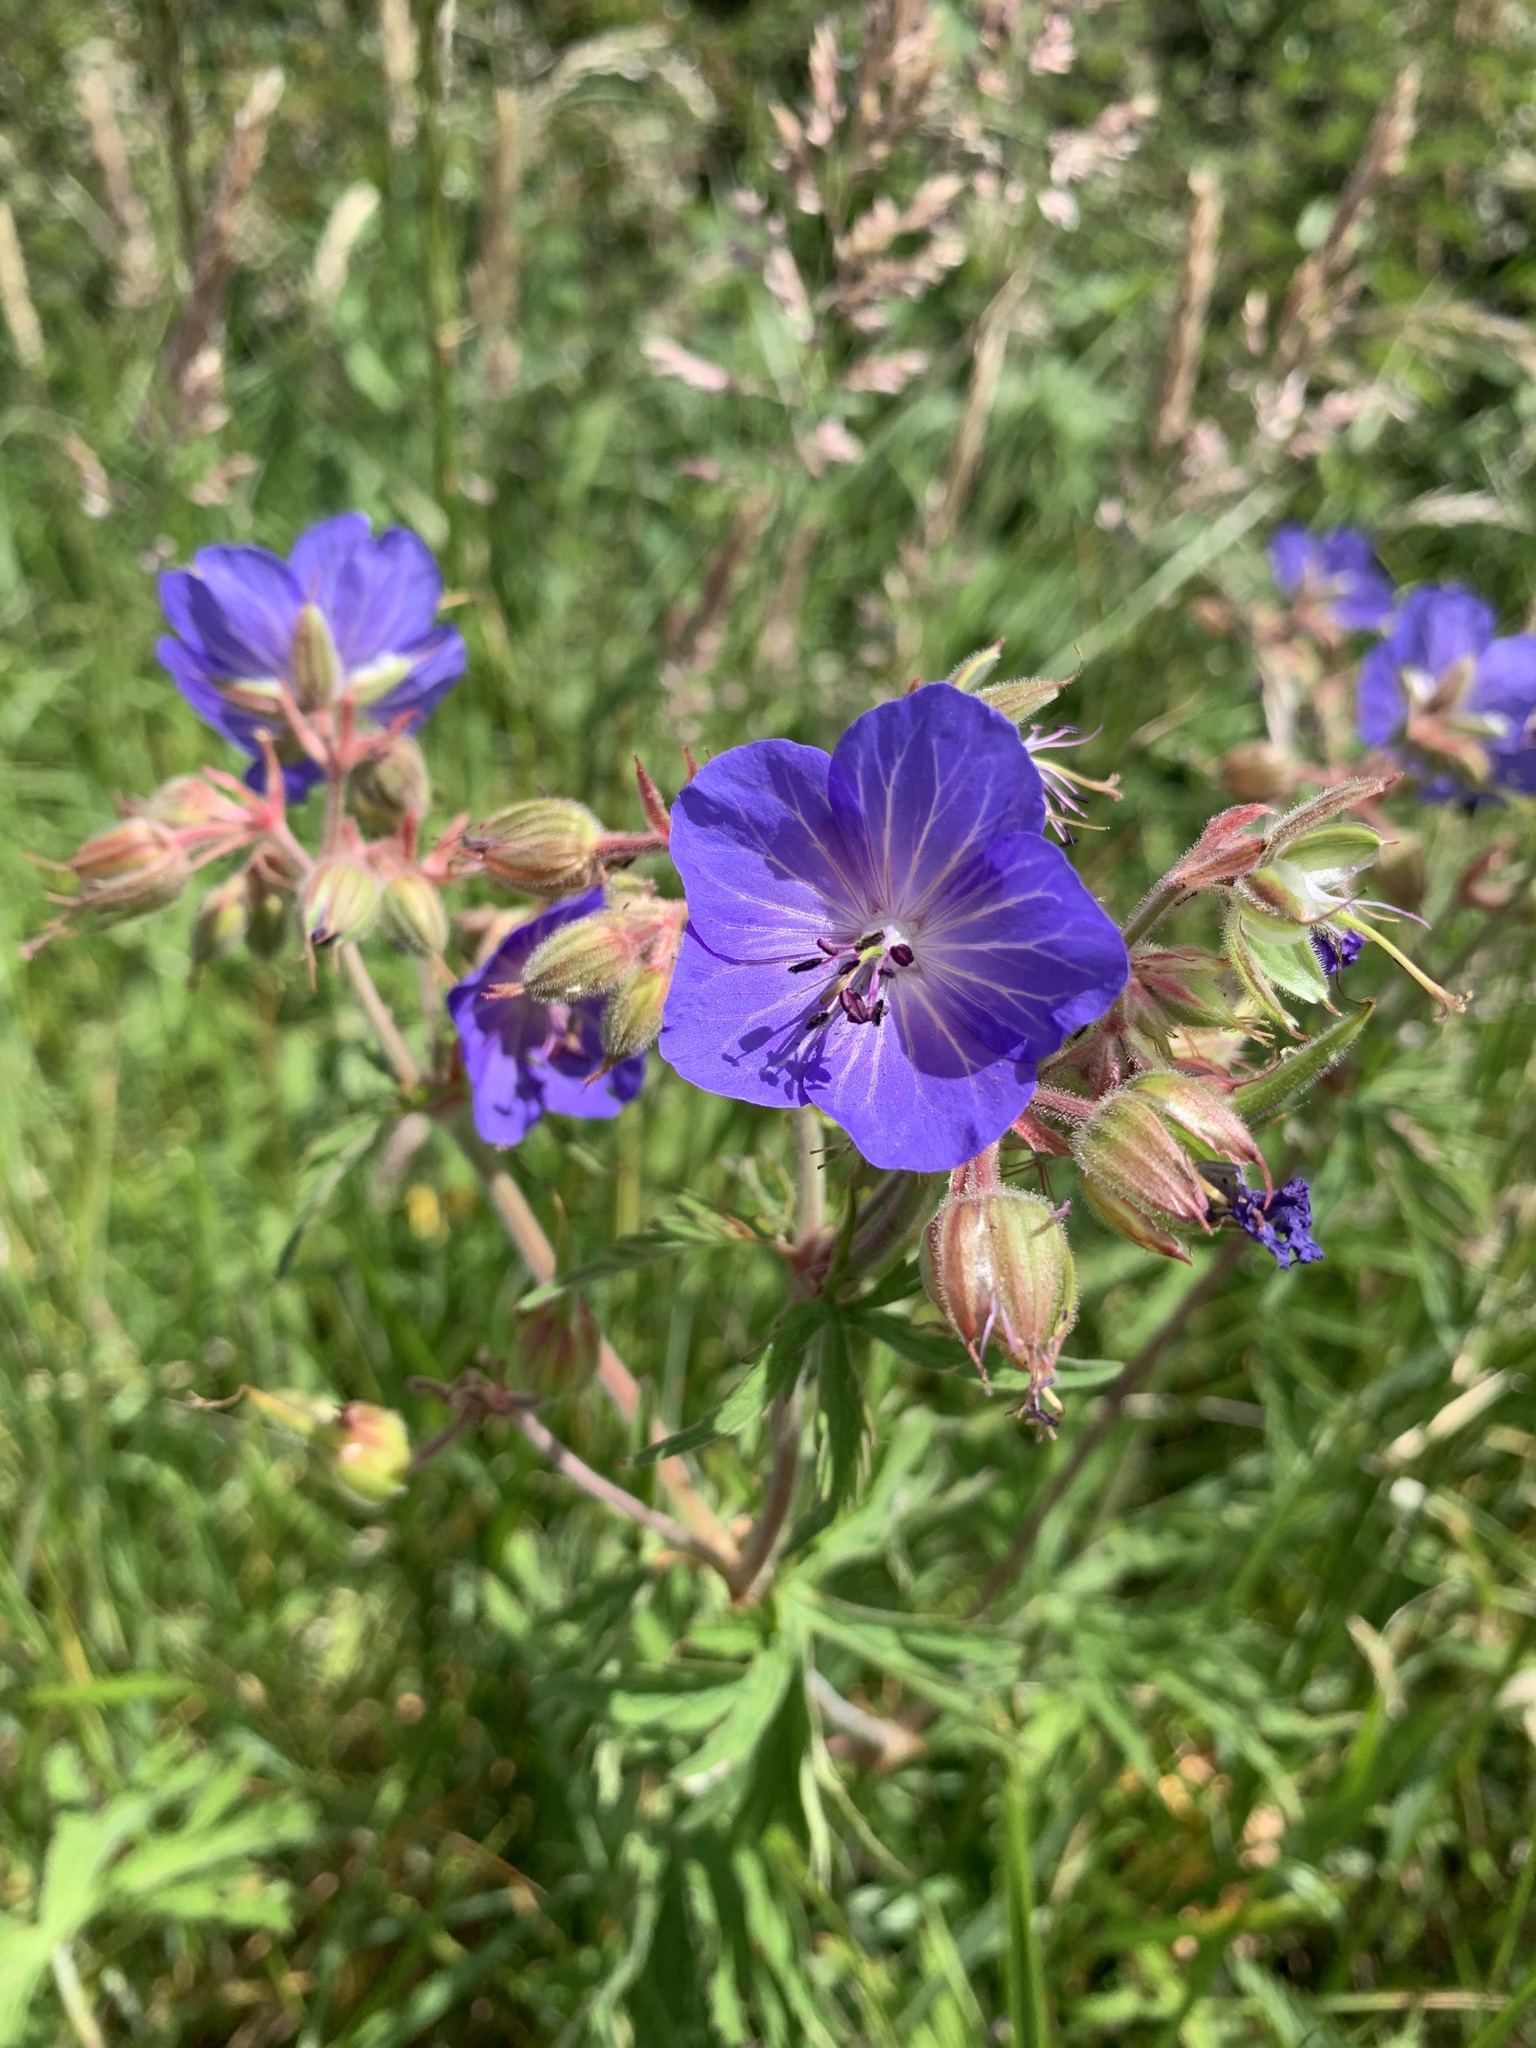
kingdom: Plantae
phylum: Tracheophyta
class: Magnoliopsida
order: Geraniales
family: Geraniaceae
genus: Geranium
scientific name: Geranium pratense
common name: Meadow crane's-bill
